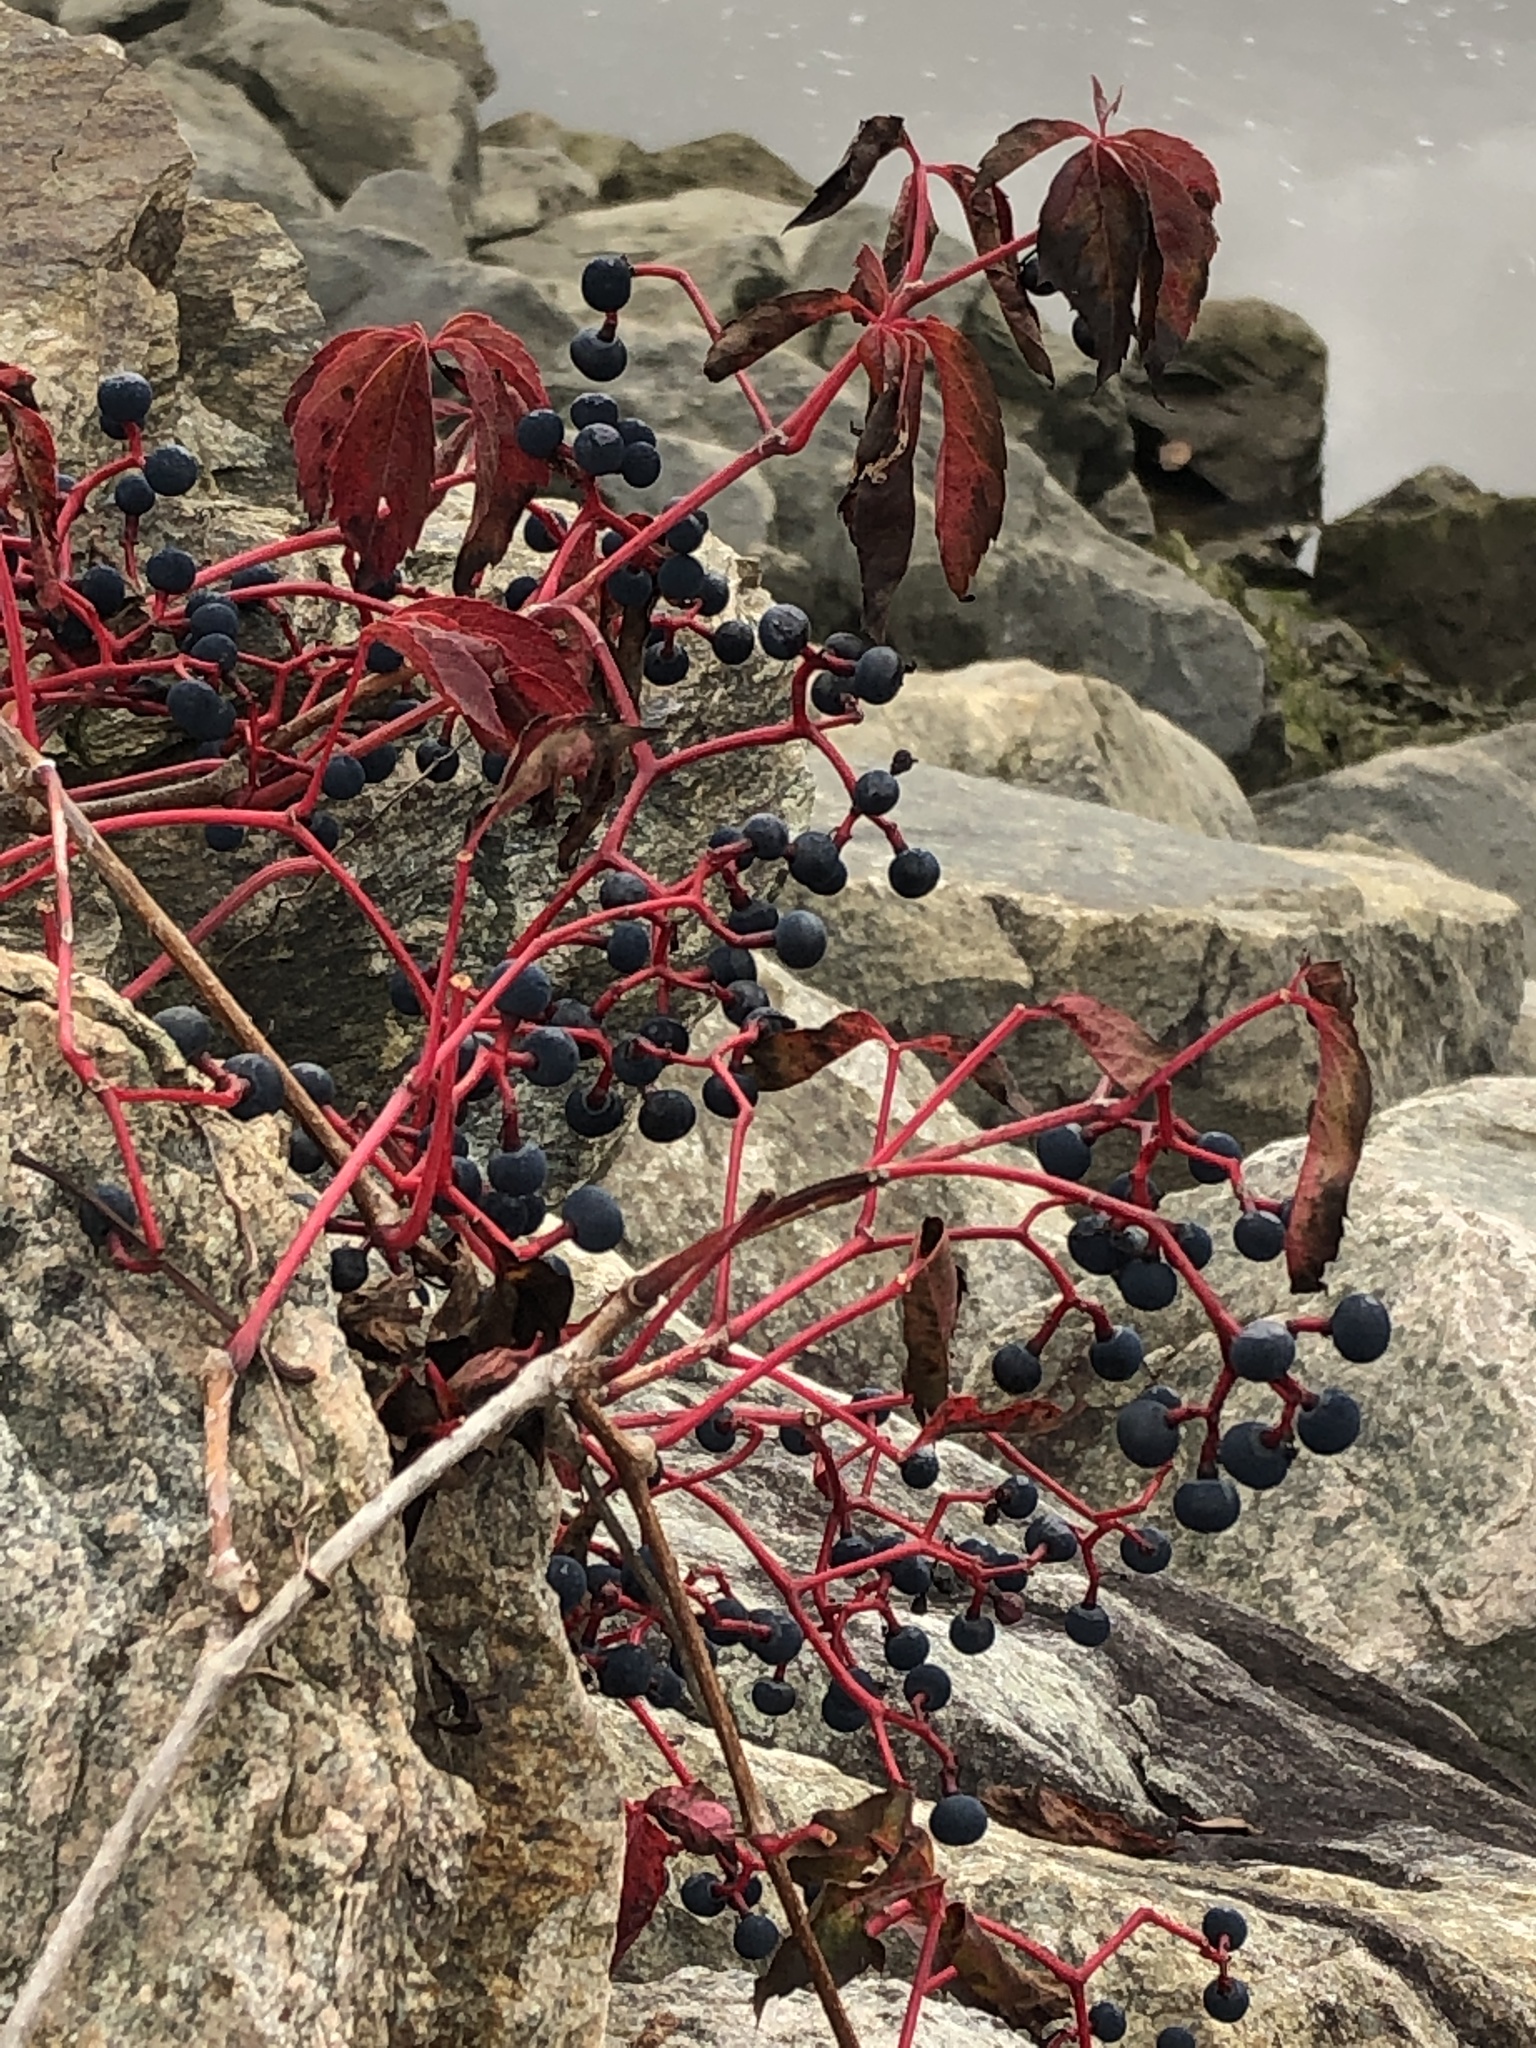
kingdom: Plantae
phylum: Tracheophyta
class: Magnoliopsida
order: Vitales
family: Vitaceae
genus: Parthenocissus
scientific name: Parthenocissus inserta
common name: False virginia-creeper
